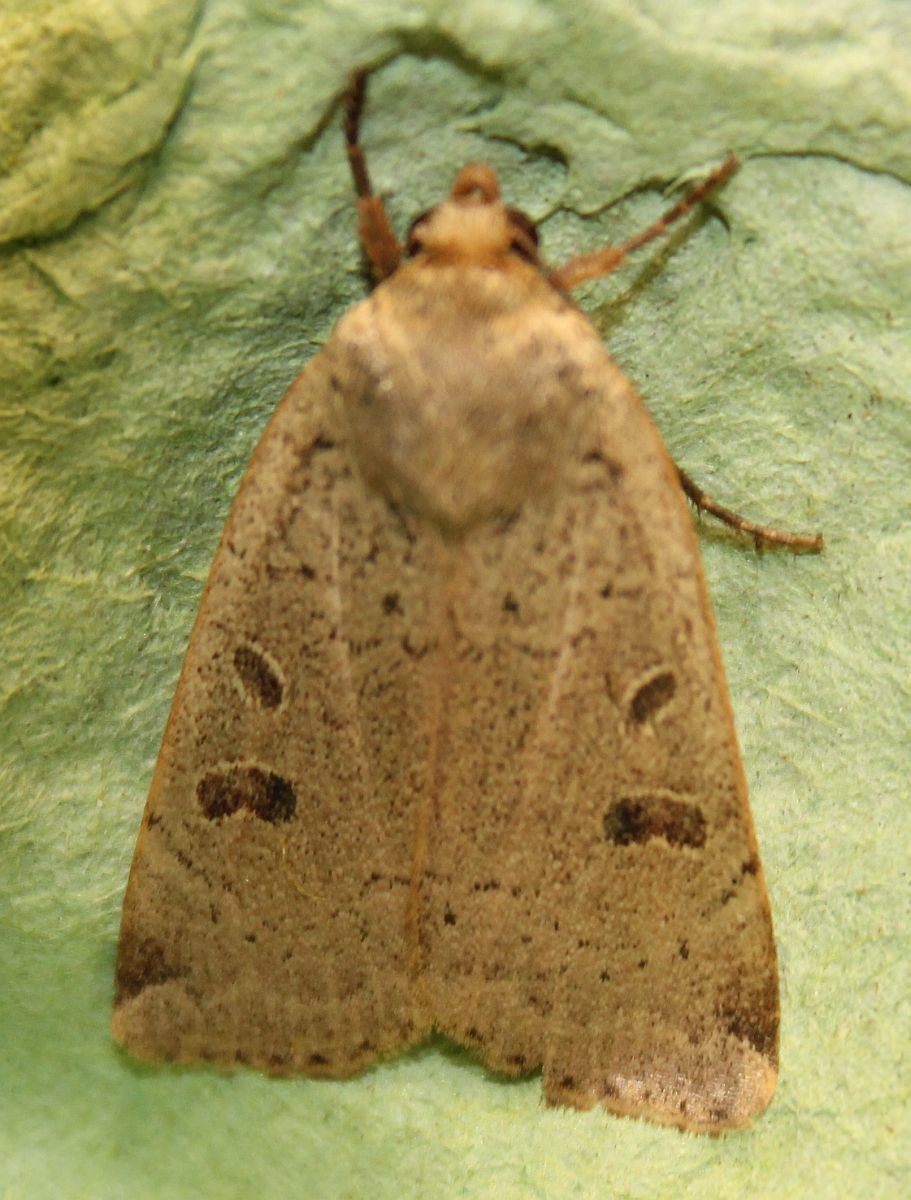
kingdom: Animalia
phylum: Arthropoda
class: Insecta
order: Lepidoptera
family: Noctuidae
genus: Noctua
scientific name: Noctua comes
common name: Lesser yellow underwing
